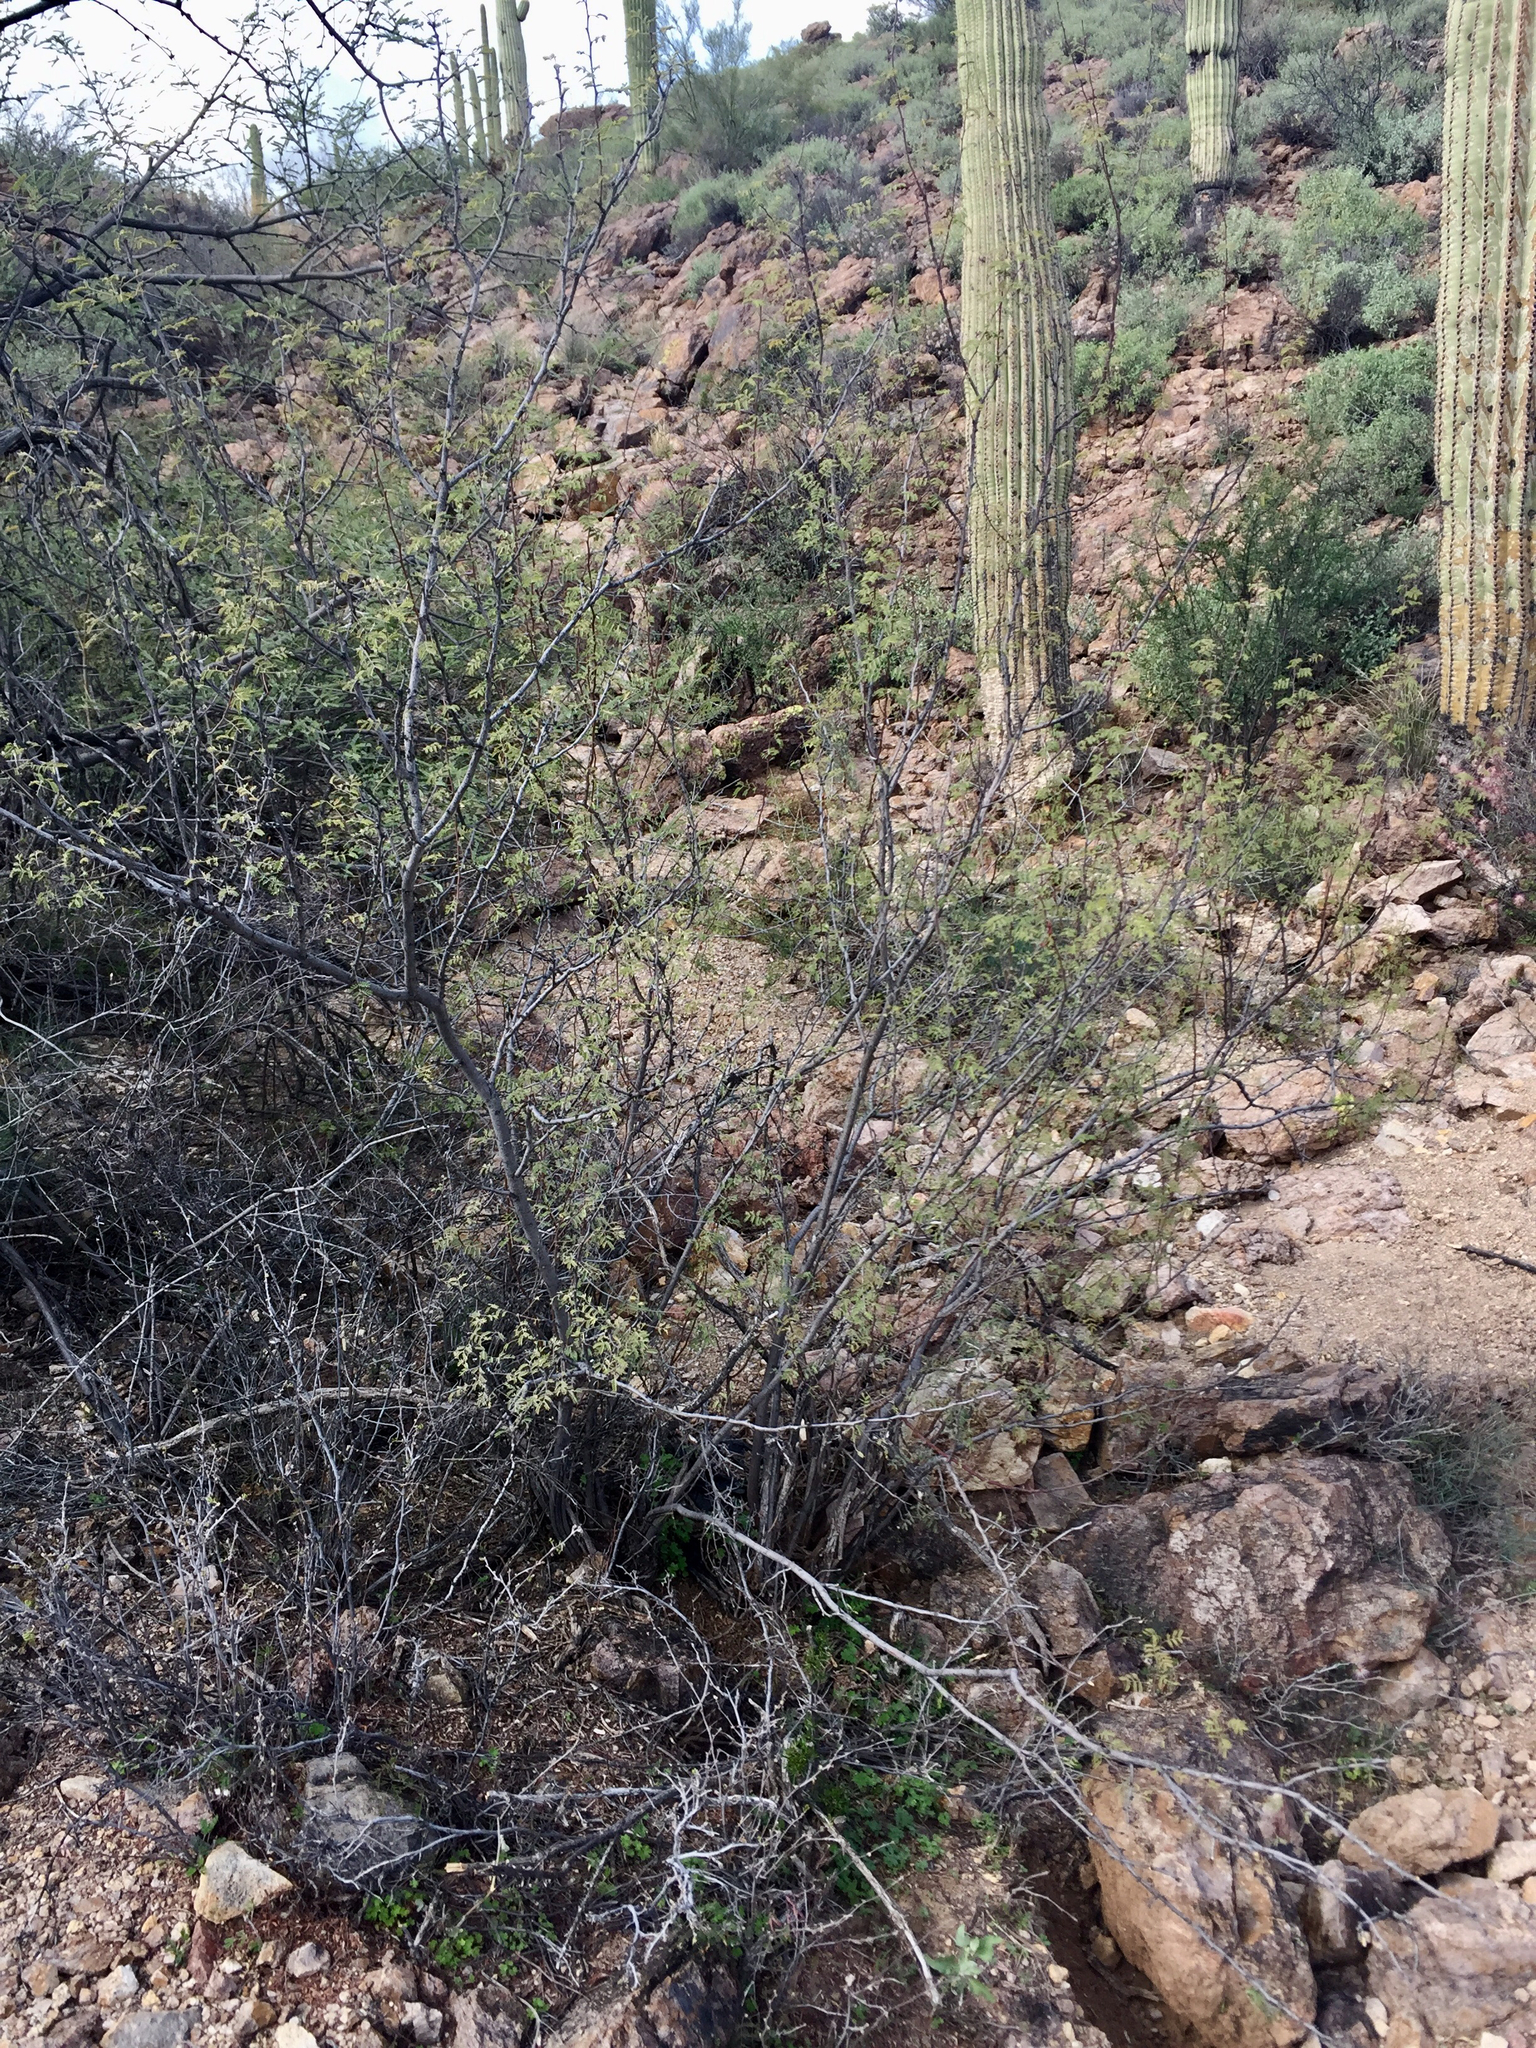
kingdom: Plantae
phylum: Tracheophyta
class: Magnoliopsida
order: Fabales
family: Fabaceae
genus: Vachellia
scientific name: Vachellia constricta
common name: Mescat acacia
